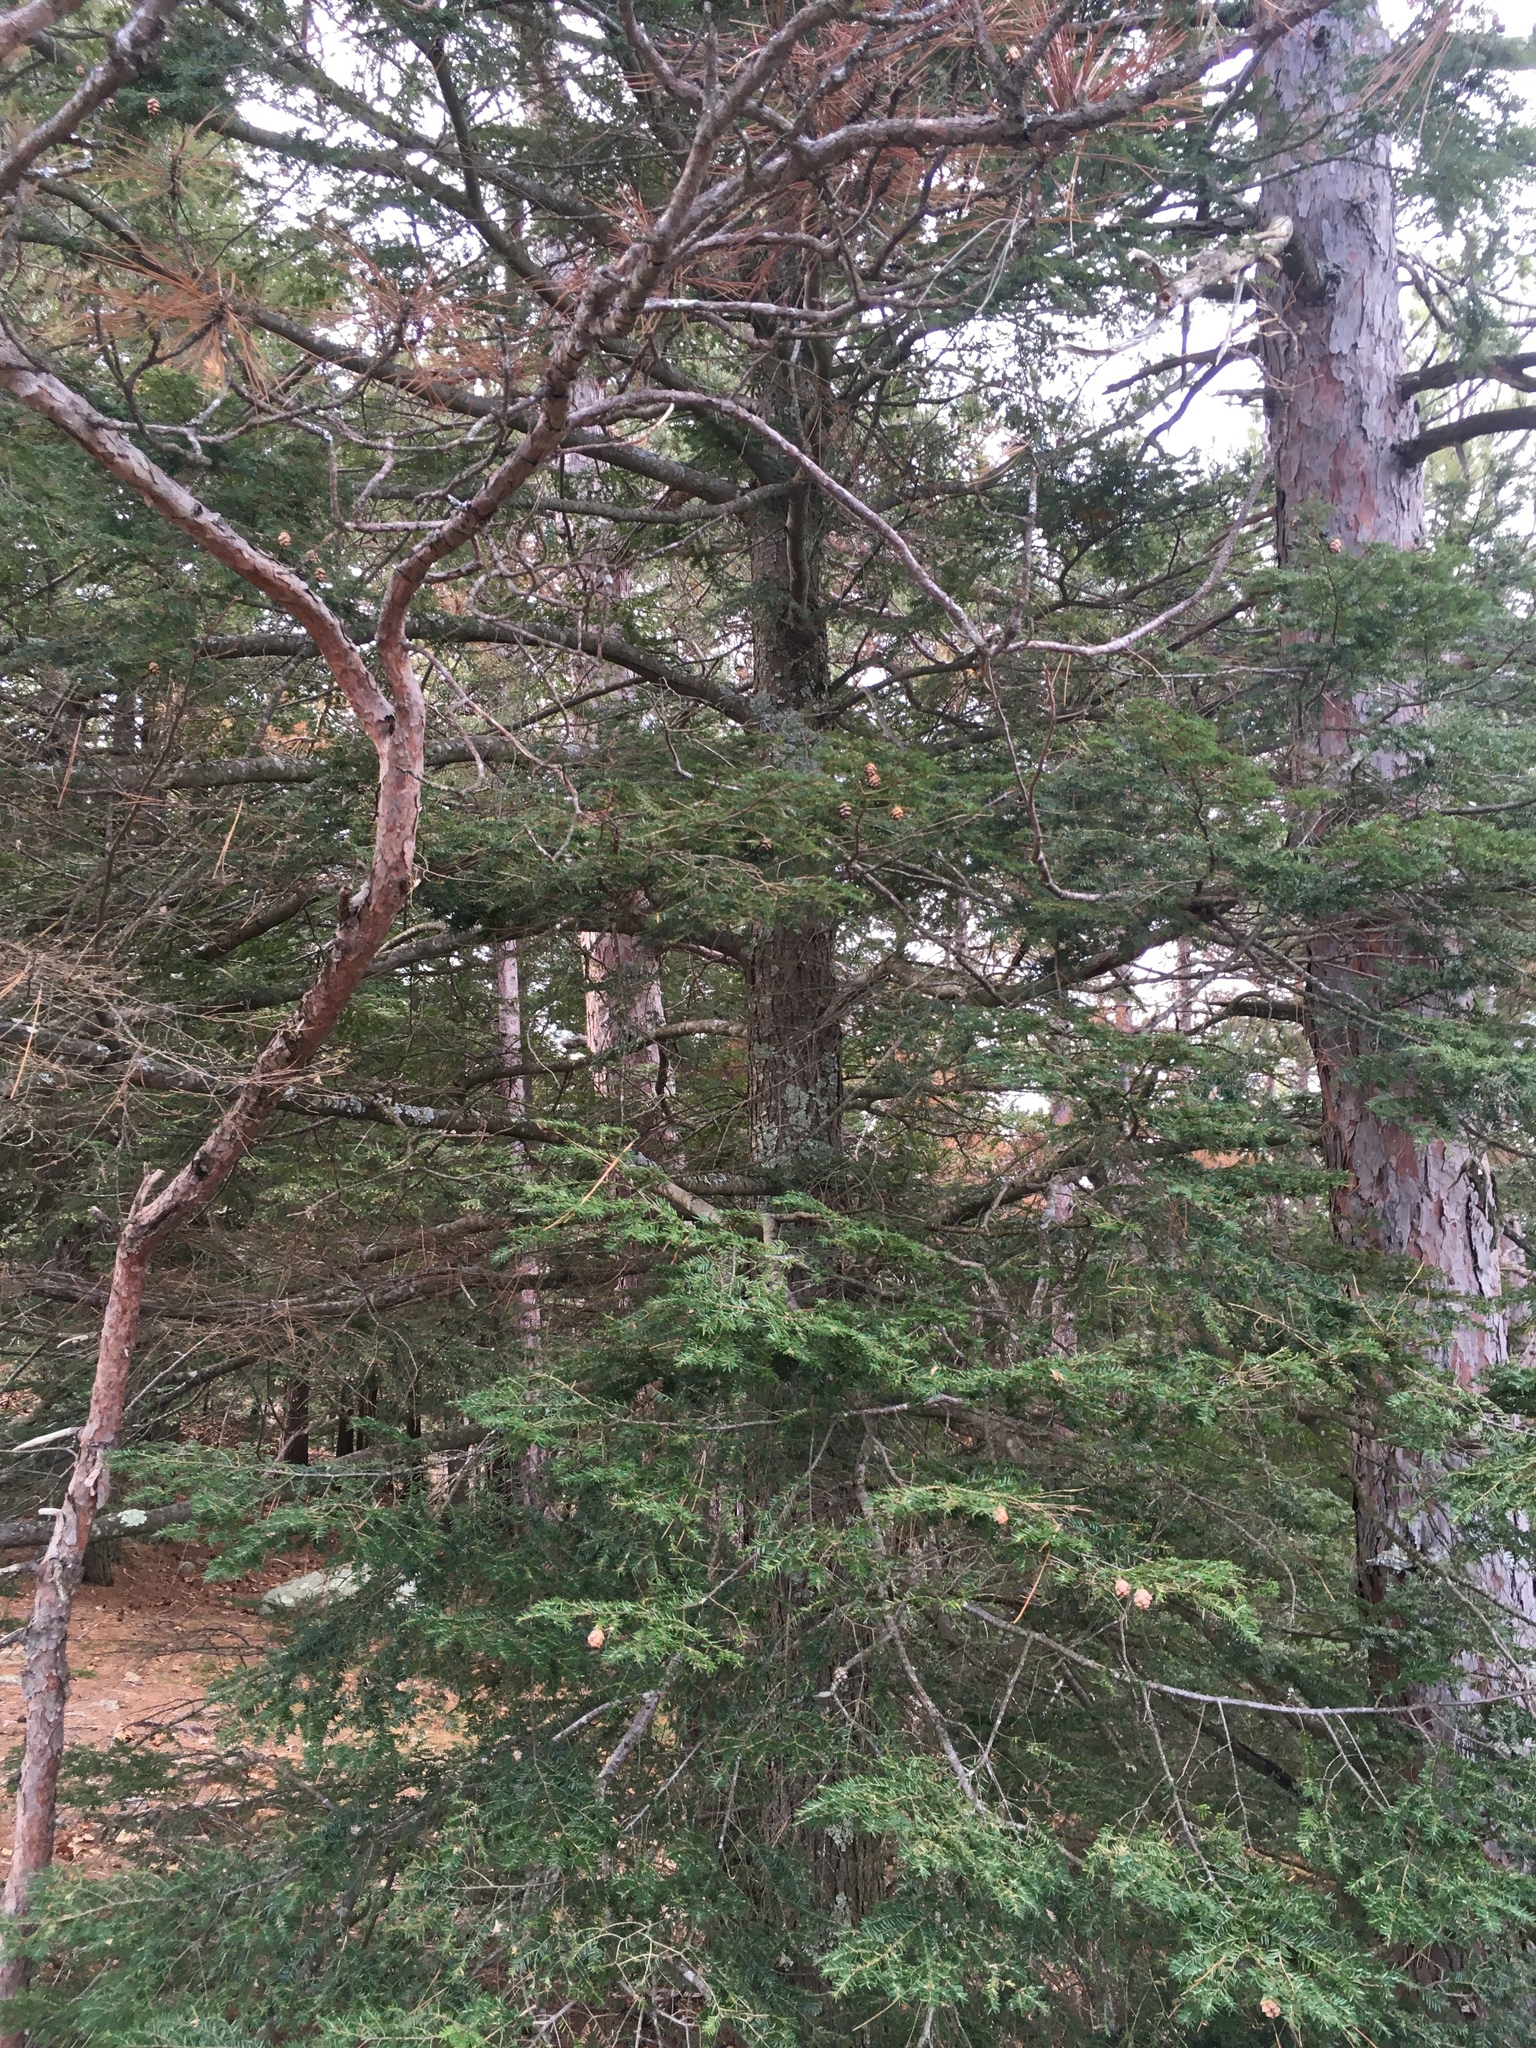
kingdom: Plantae
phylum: Tracheophyta
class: Pinopsida
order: Pinales
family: Pinaceae
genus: Tsuga
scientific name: Tsuga canadensis
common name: Eastern hemlock
